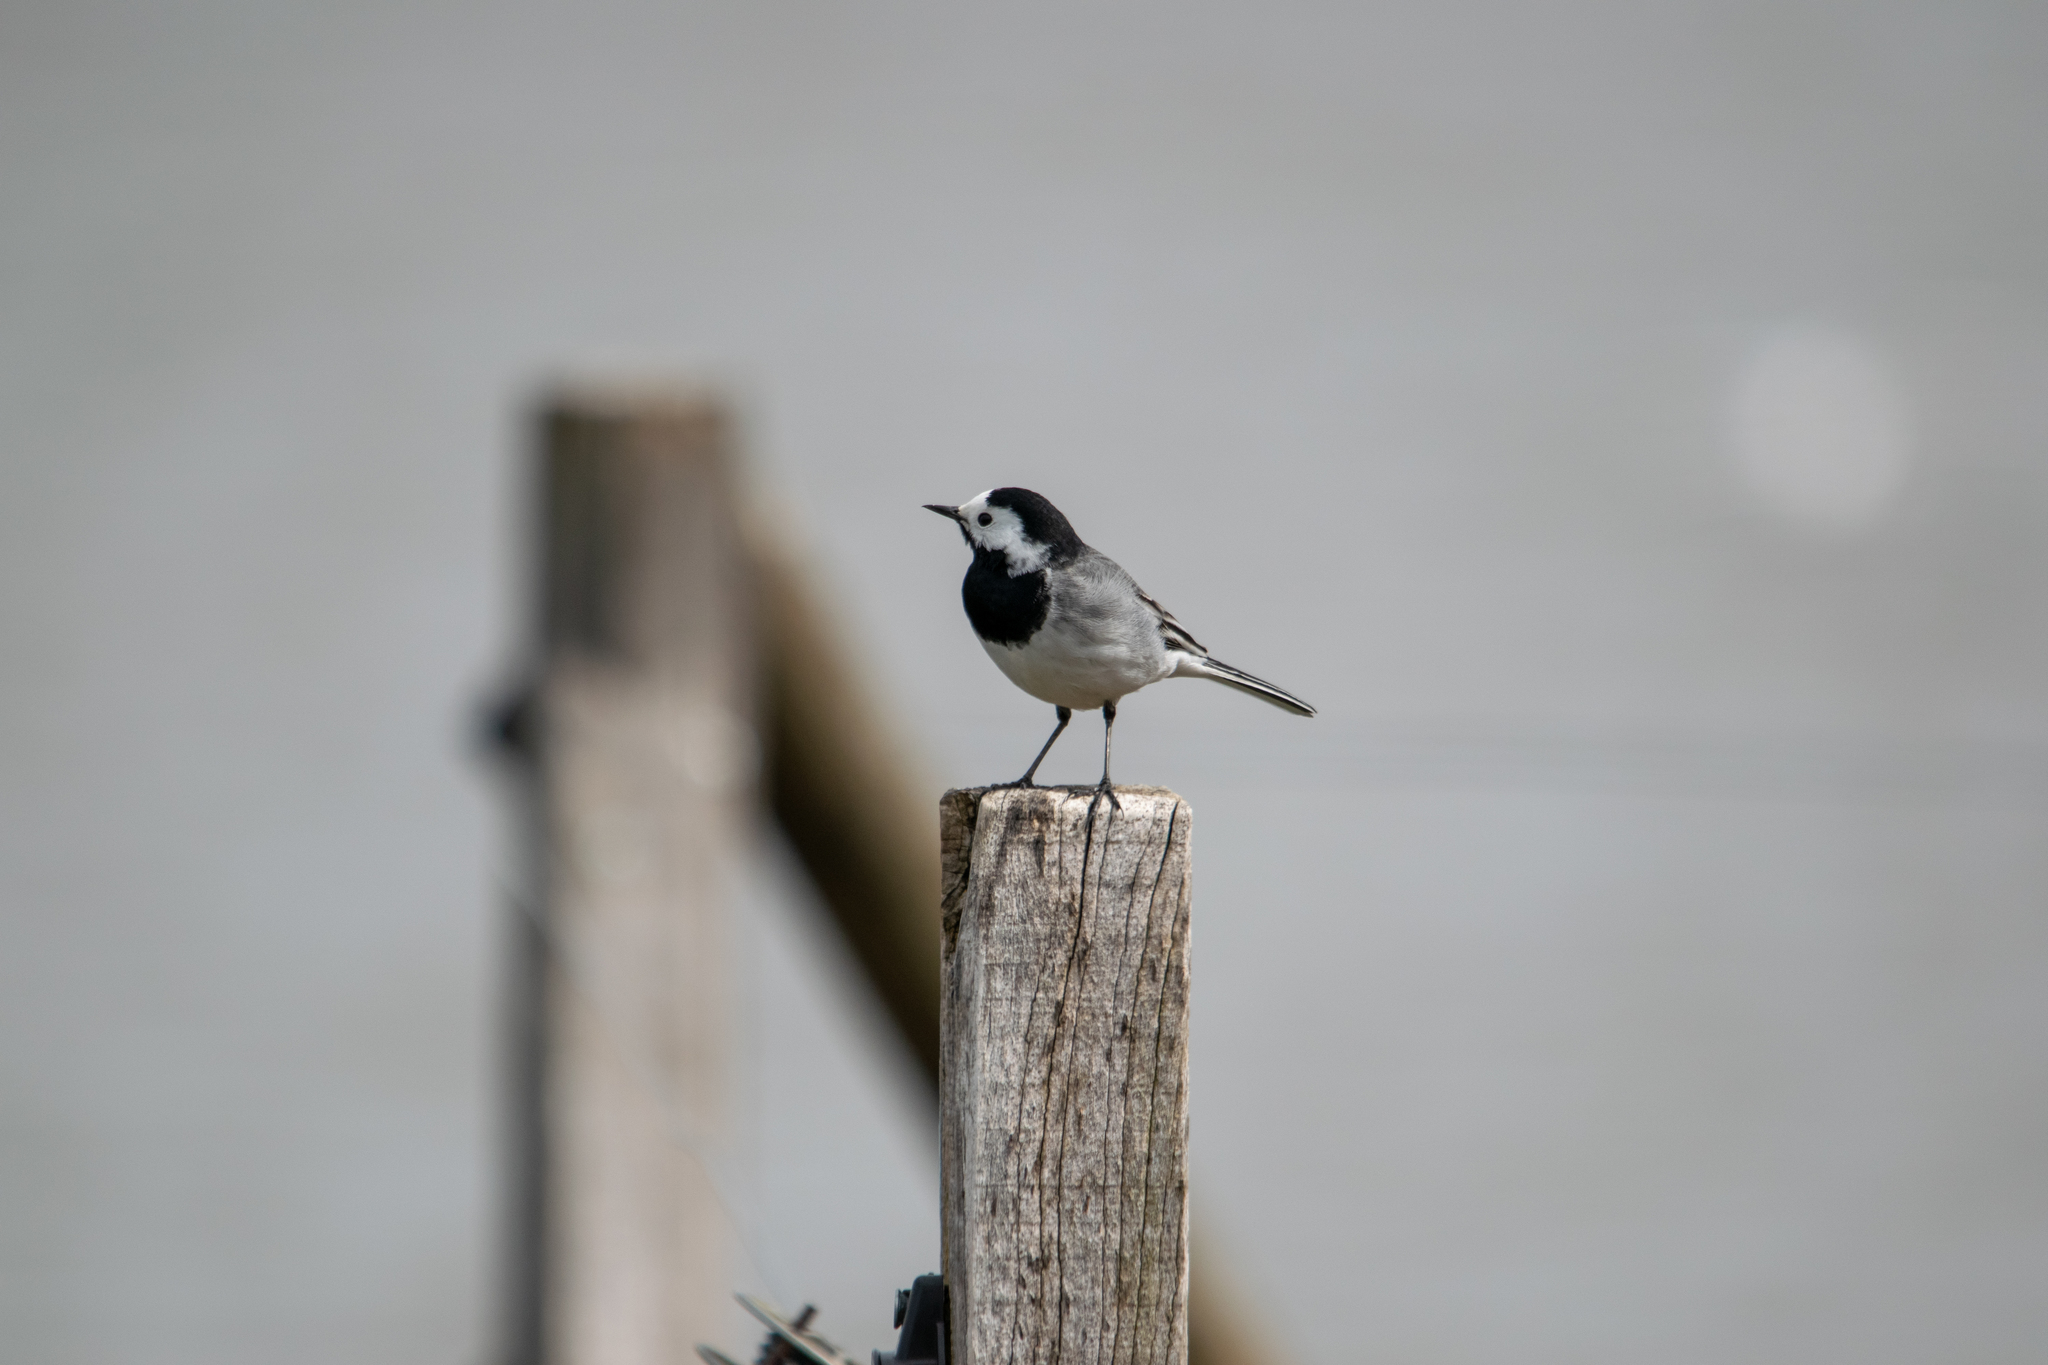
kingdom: Animalia
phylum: Chordata
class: Aves
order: Passeriformes
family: Motacillidae
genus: Motacilla
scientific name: Motacilla alba
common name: White wagtail
